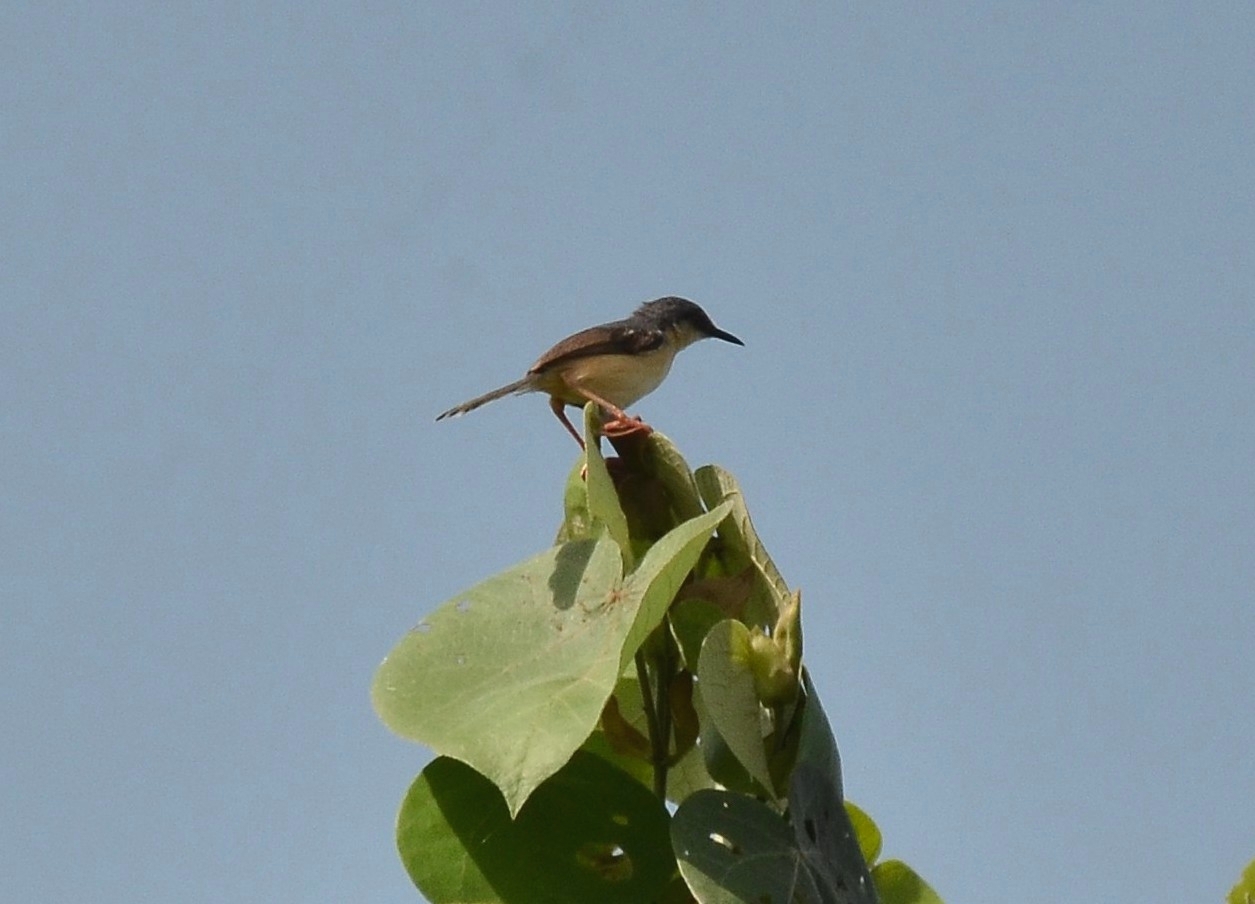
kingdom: Animalia
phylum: Chordata
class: Aves
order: Passeriformes
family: Cisticolidae
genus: Prinia
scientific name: Prinia socialis
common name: Ashy prinia
